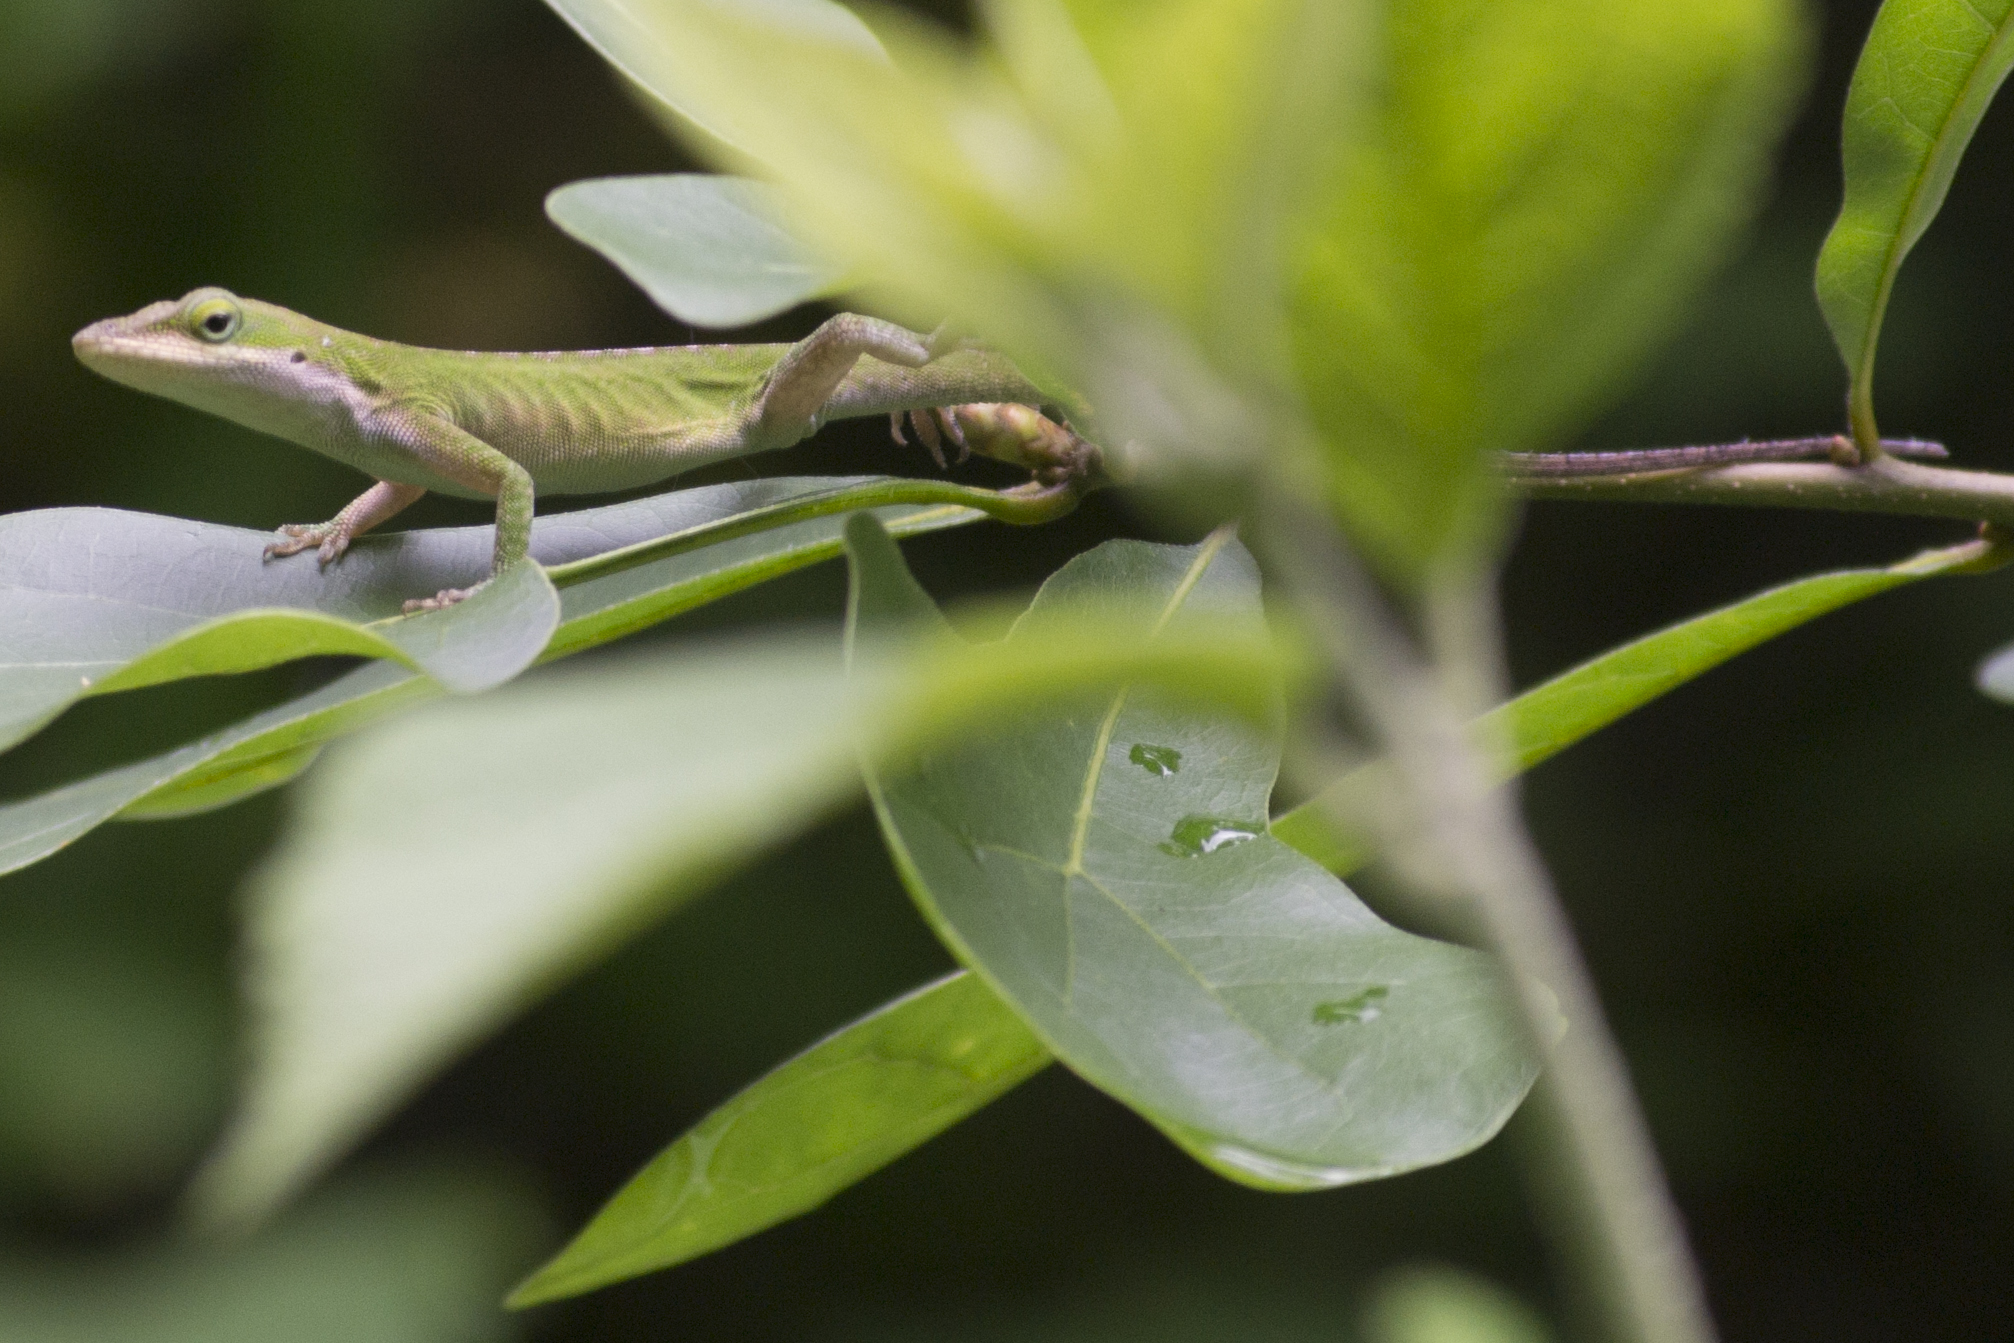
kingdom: Animalia
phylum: Chordata
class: Squamata
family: Dactyloidae
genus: Anolis
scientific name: Anolis carolinensis
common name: Green anole
